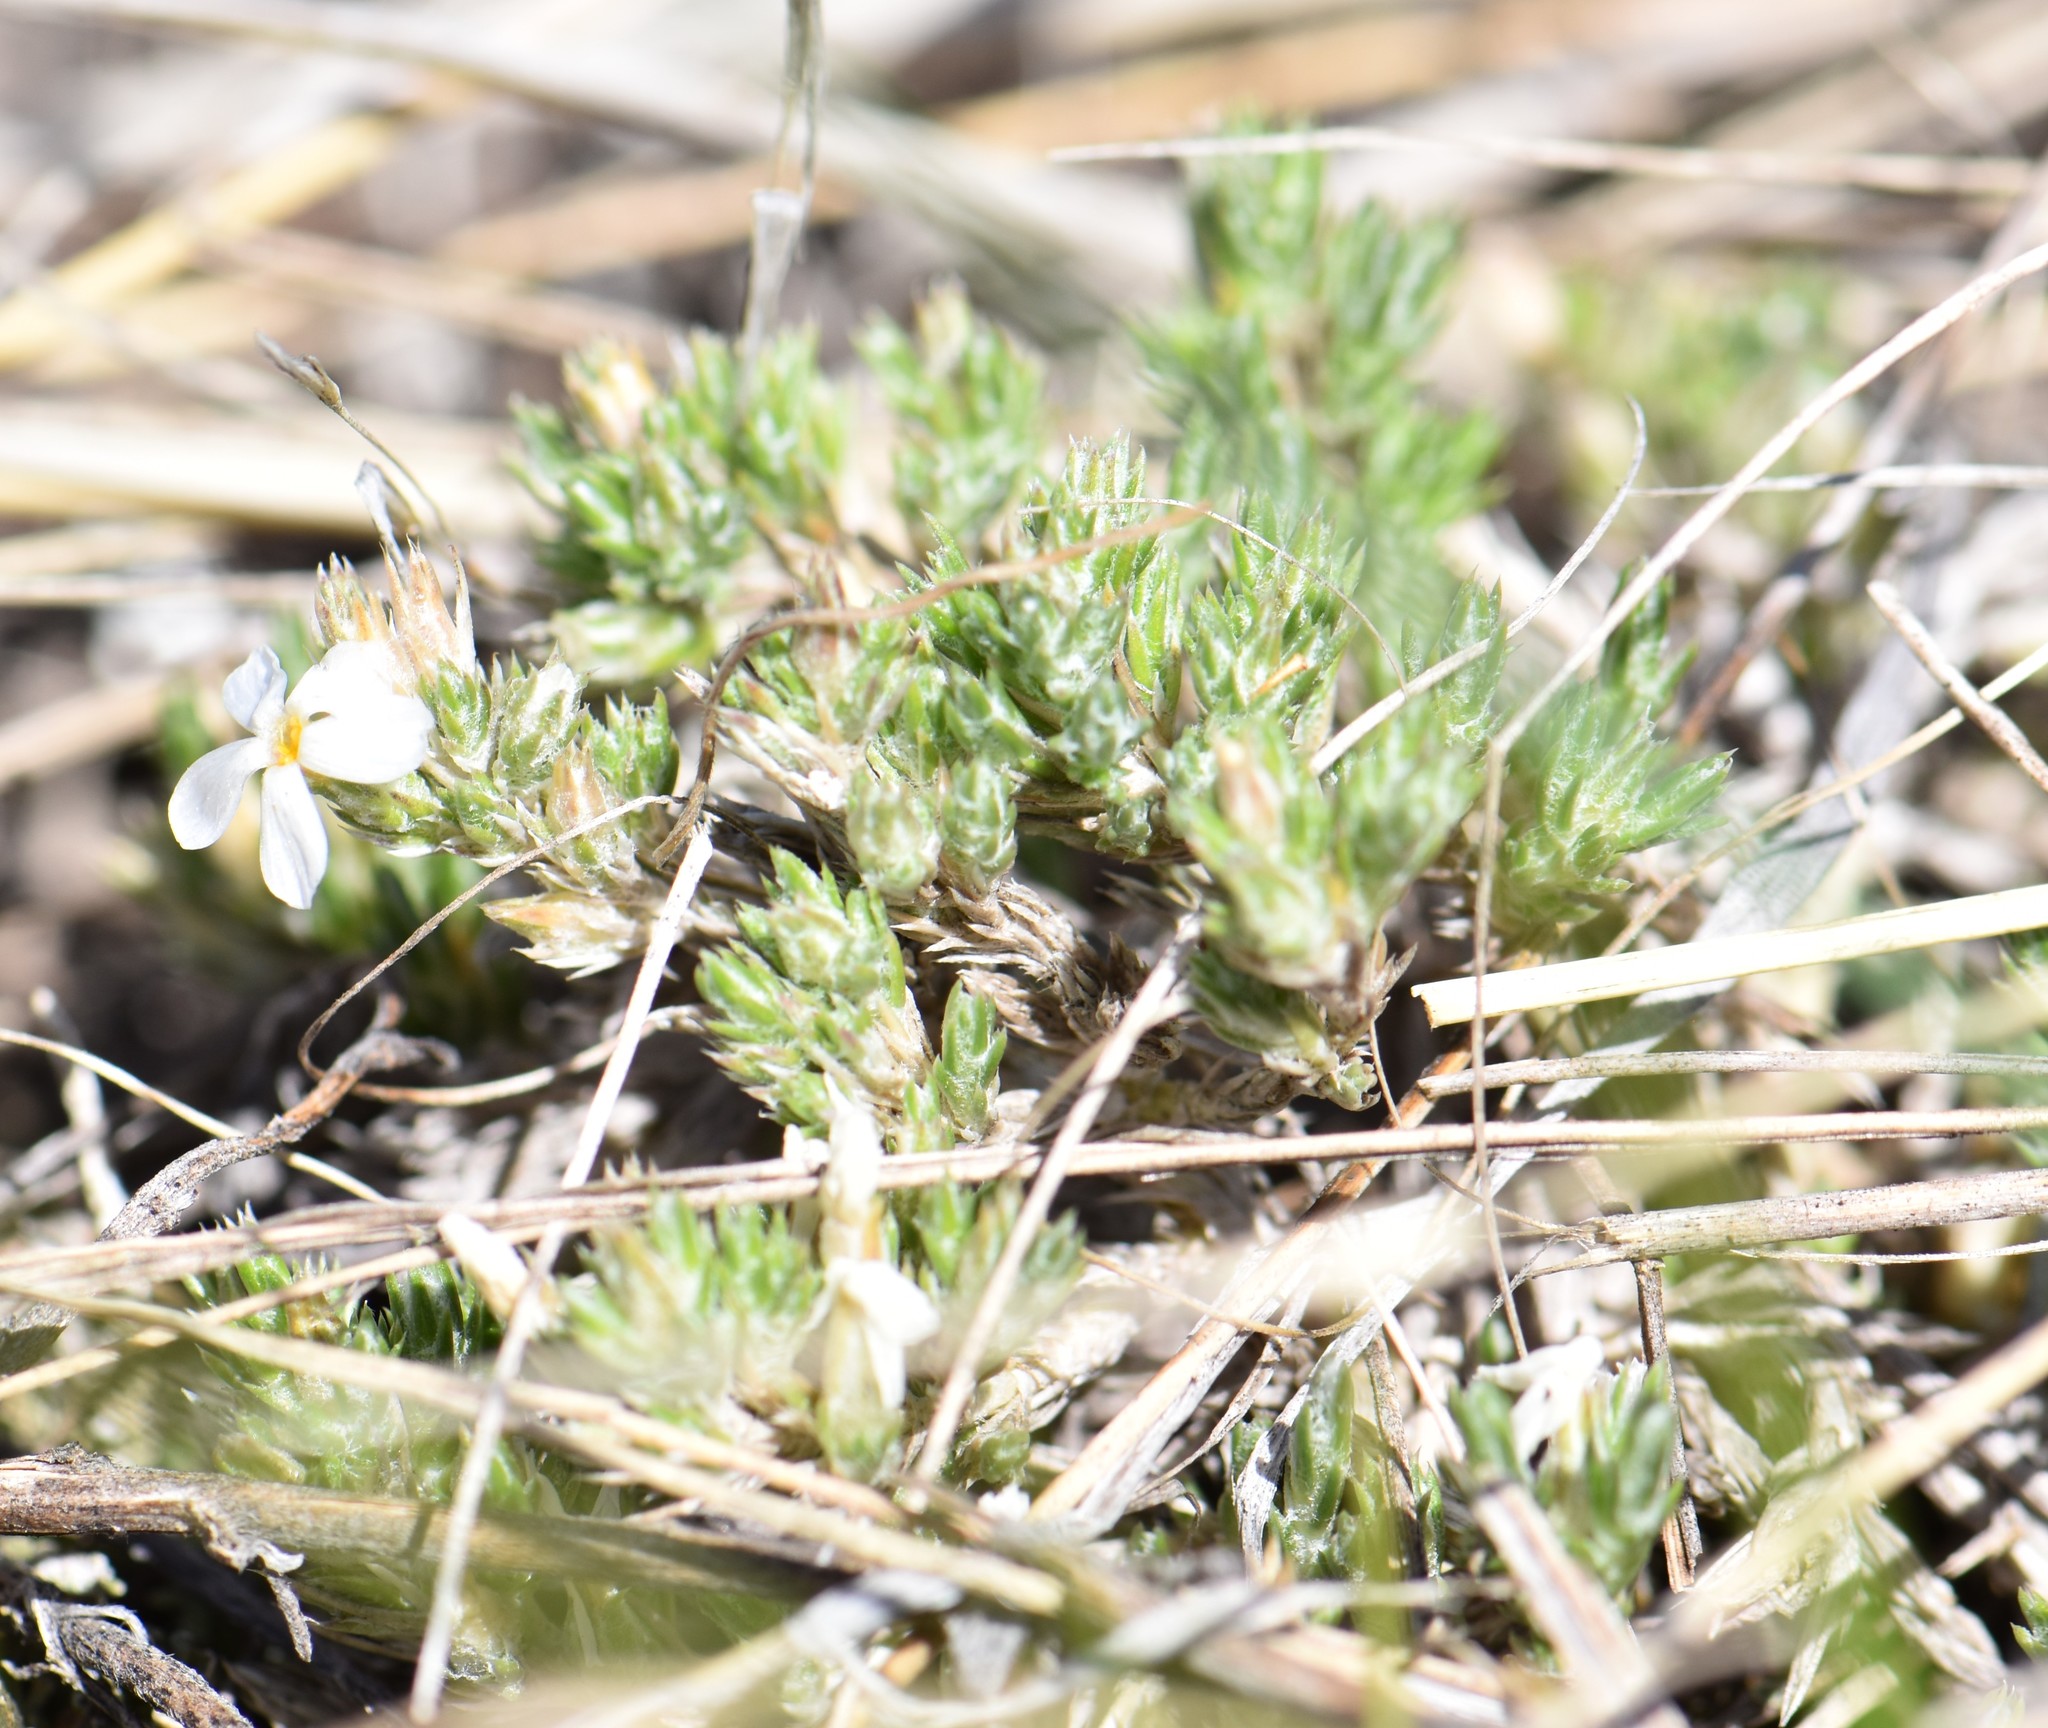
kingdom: Plantae
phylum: Tracheophyta
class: Magnoliopsida
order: Ericales
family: Polemoniaceae
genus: Phlox
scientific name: Phlox hoodii
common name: Moss phlox
